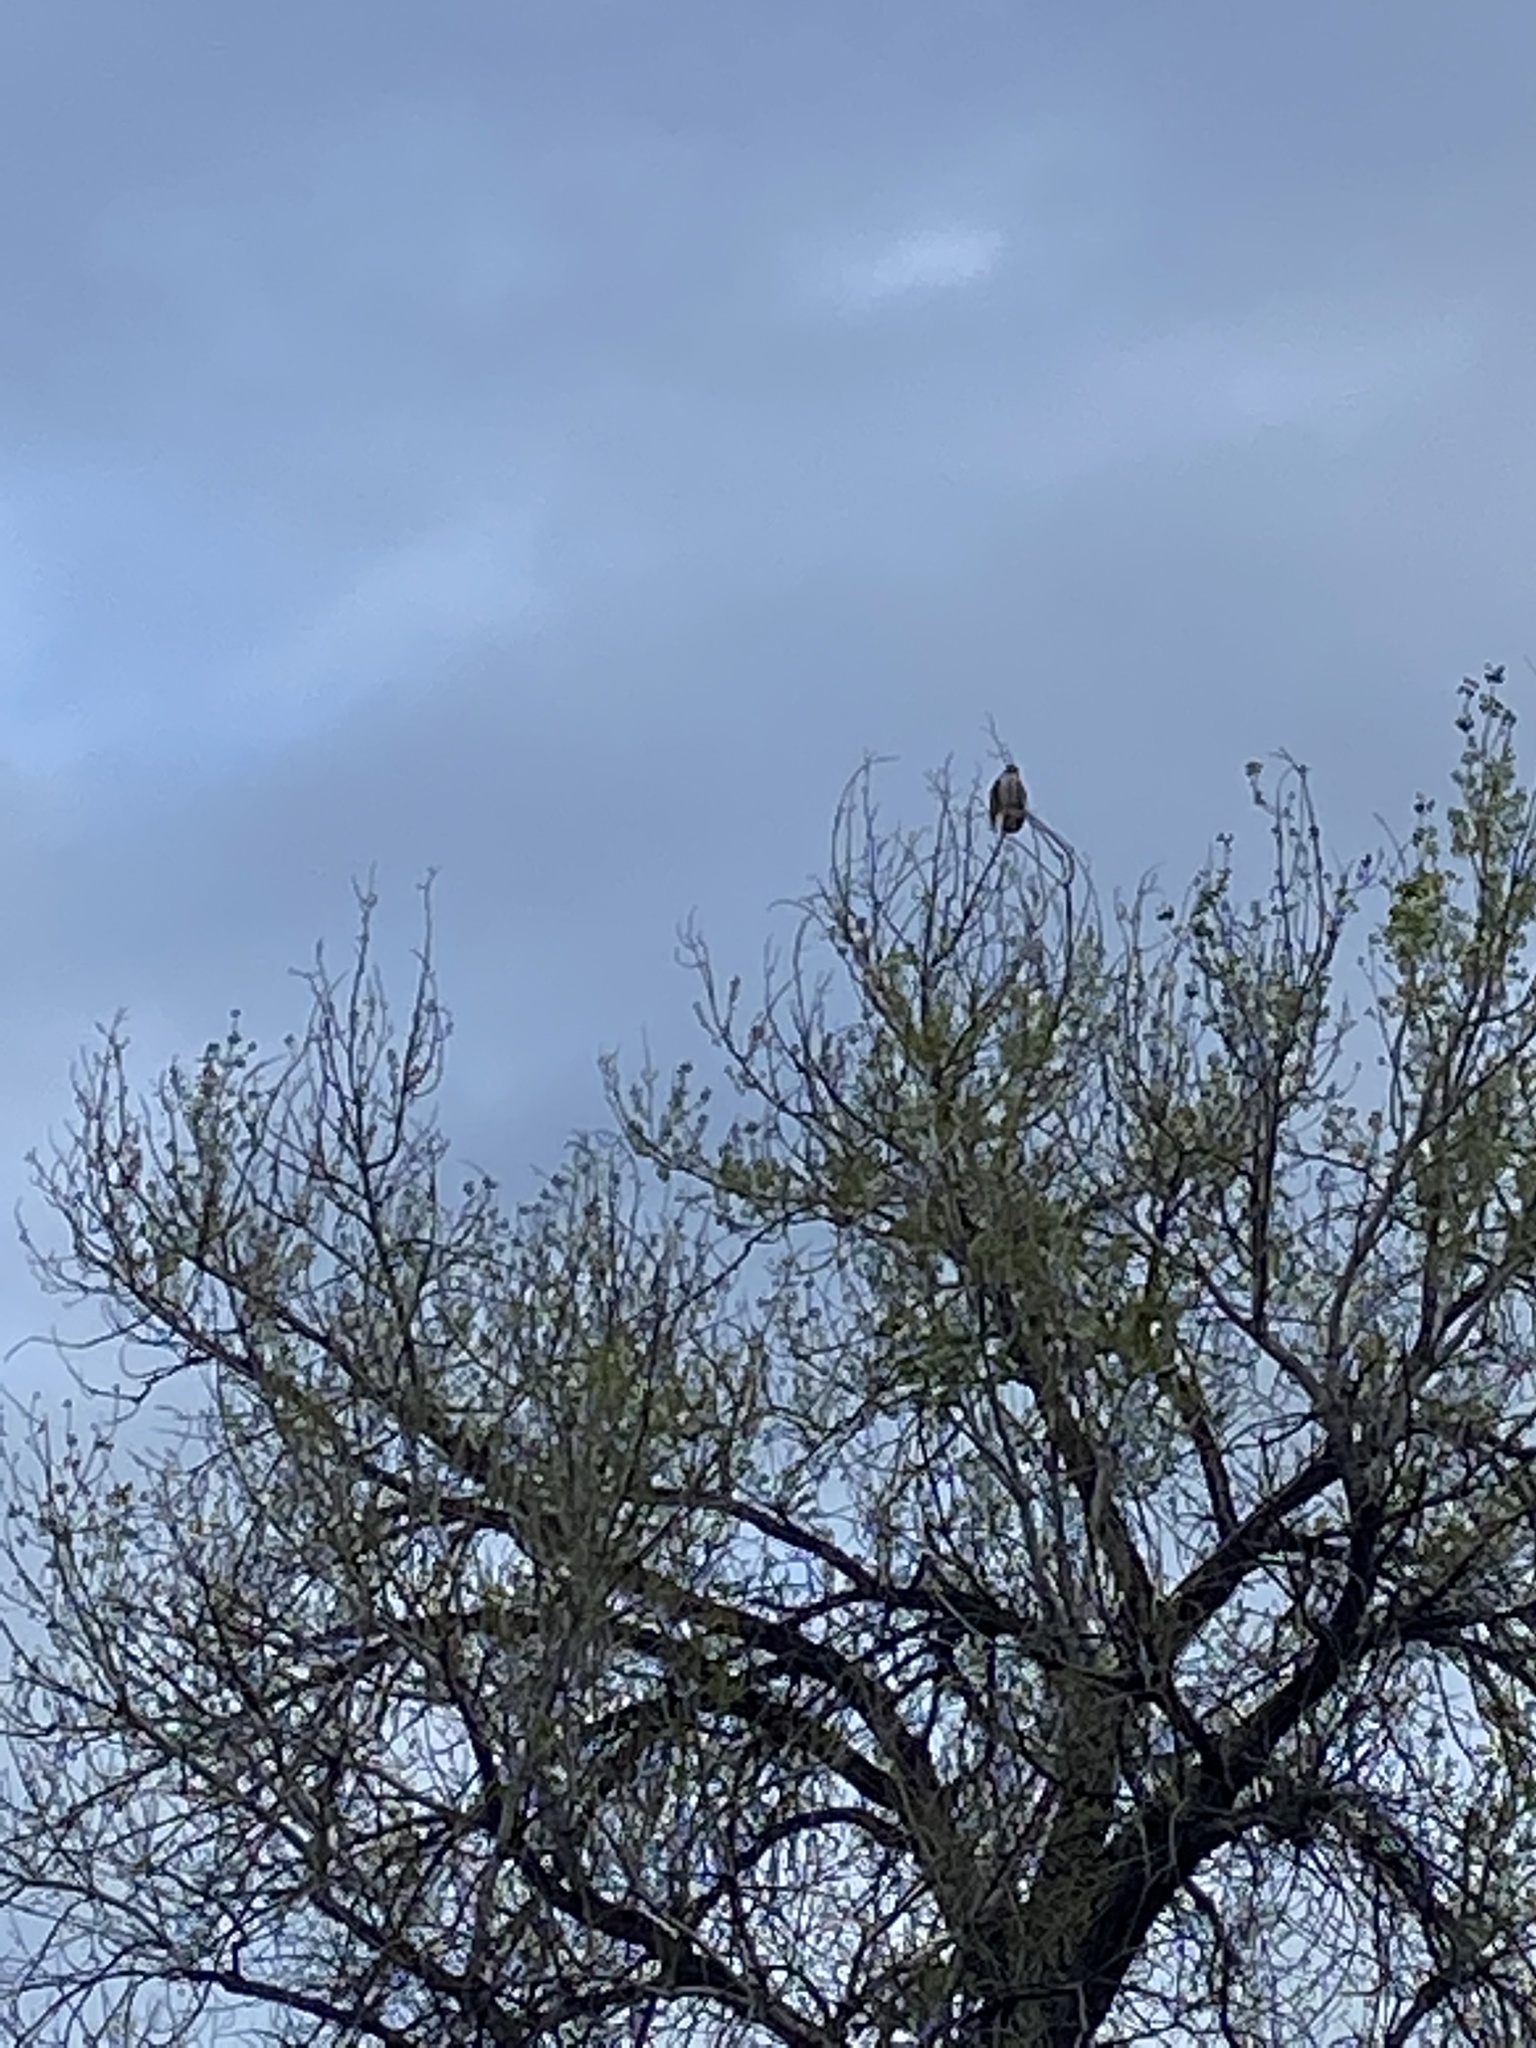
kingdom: Animalia
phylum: Chordata
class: Aves
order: Accipitriformes
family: Accipitridae
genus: Buteo
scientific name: Buteo jamaicensis
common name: Red-tailed hawk
